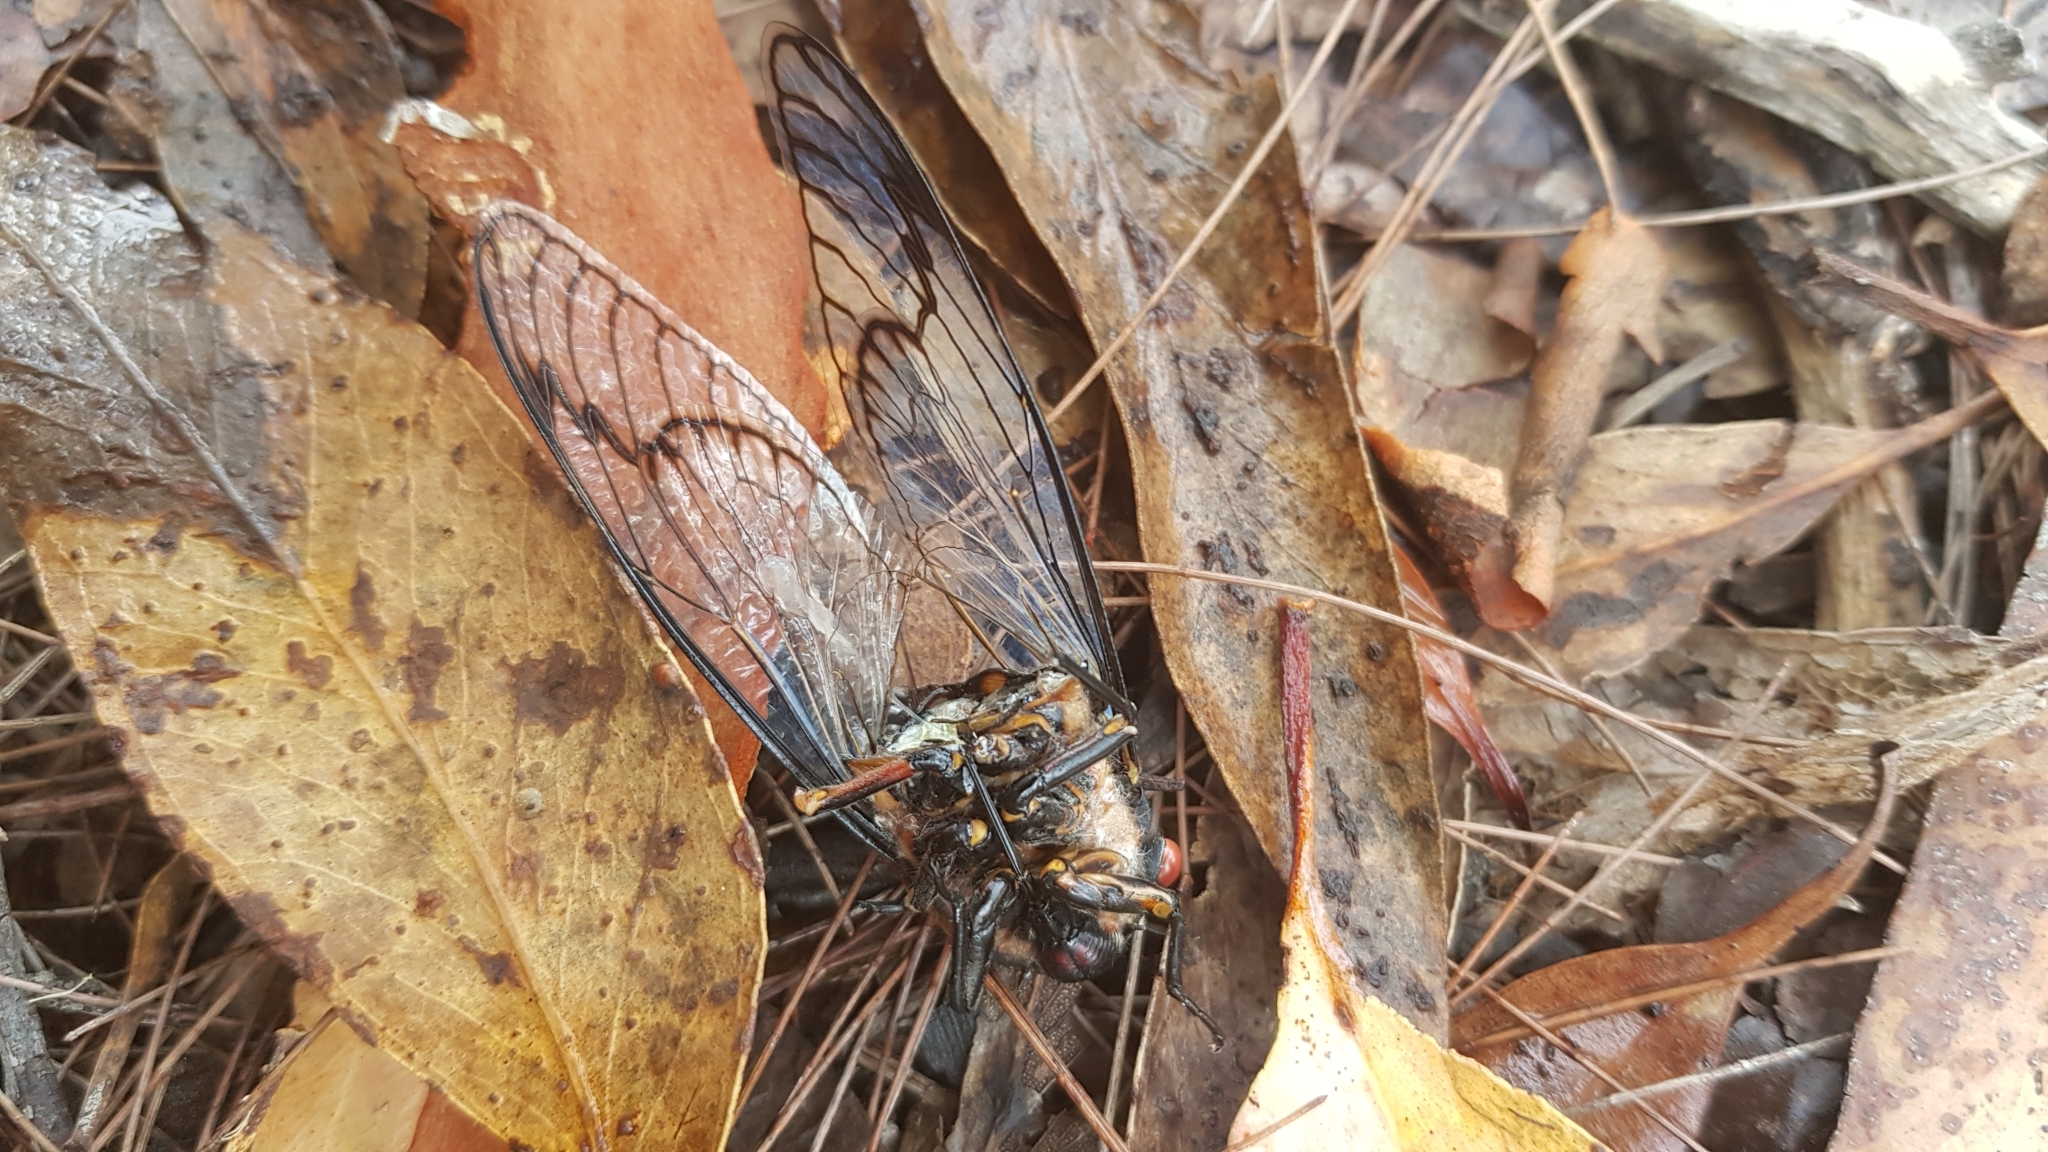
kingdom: Animalia
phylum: Arthropoda
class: Insecta
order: Hemiptera
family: Cicadidae
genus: Psaltoda
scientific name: Psaltoda moerens
